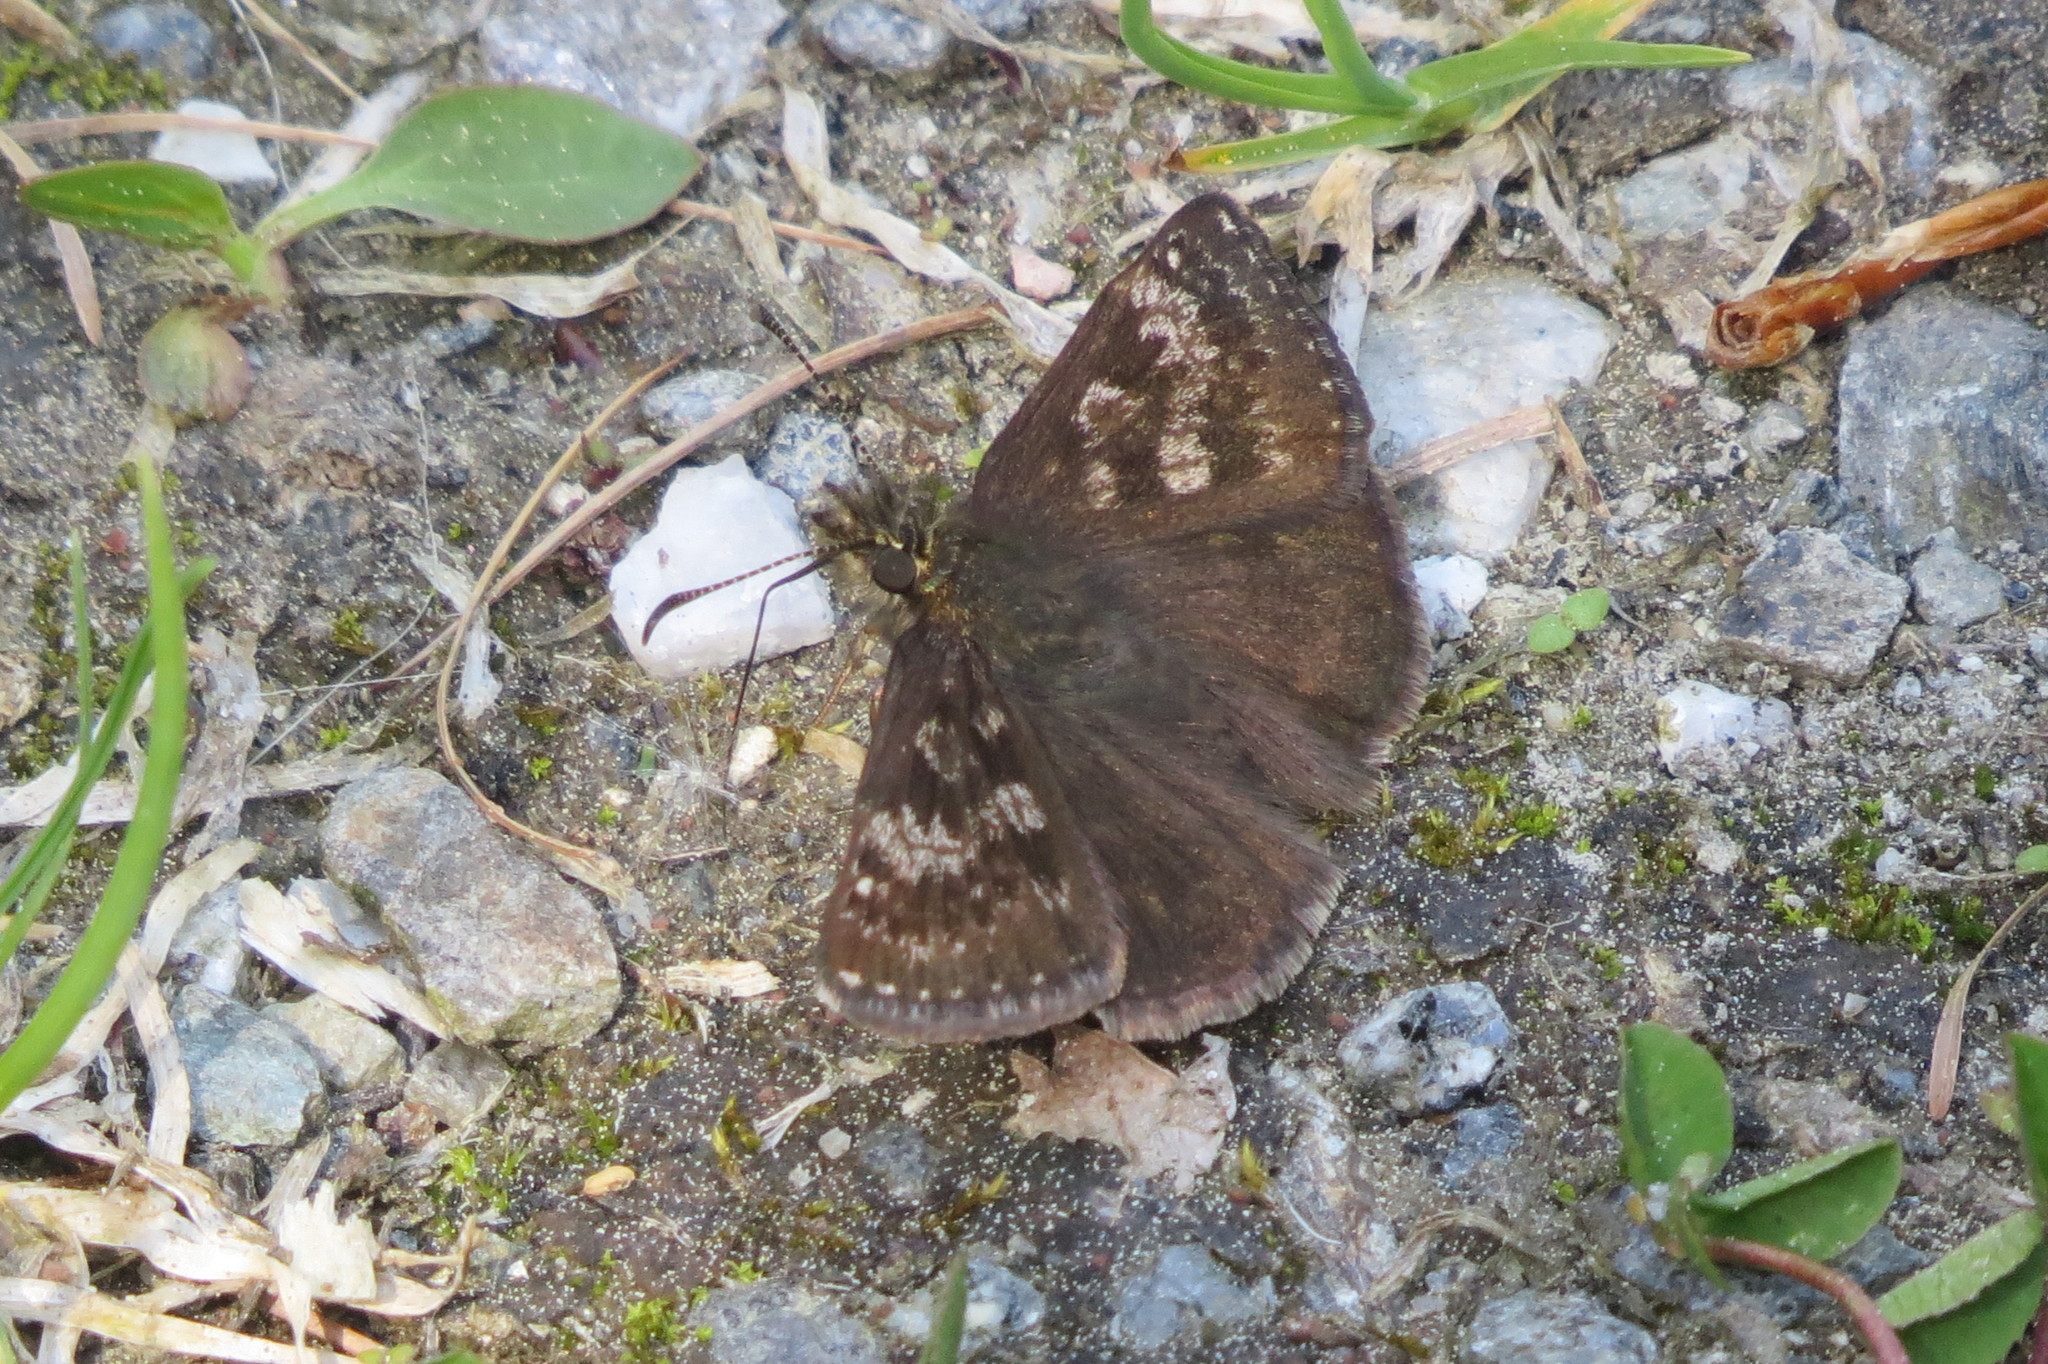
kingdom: Animalia
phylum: Arthropoda
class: Insecta
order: Lepidoptera
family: Hesperiidae
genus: Erynnis
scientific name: Erynnis tages
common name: Dingy skipper
